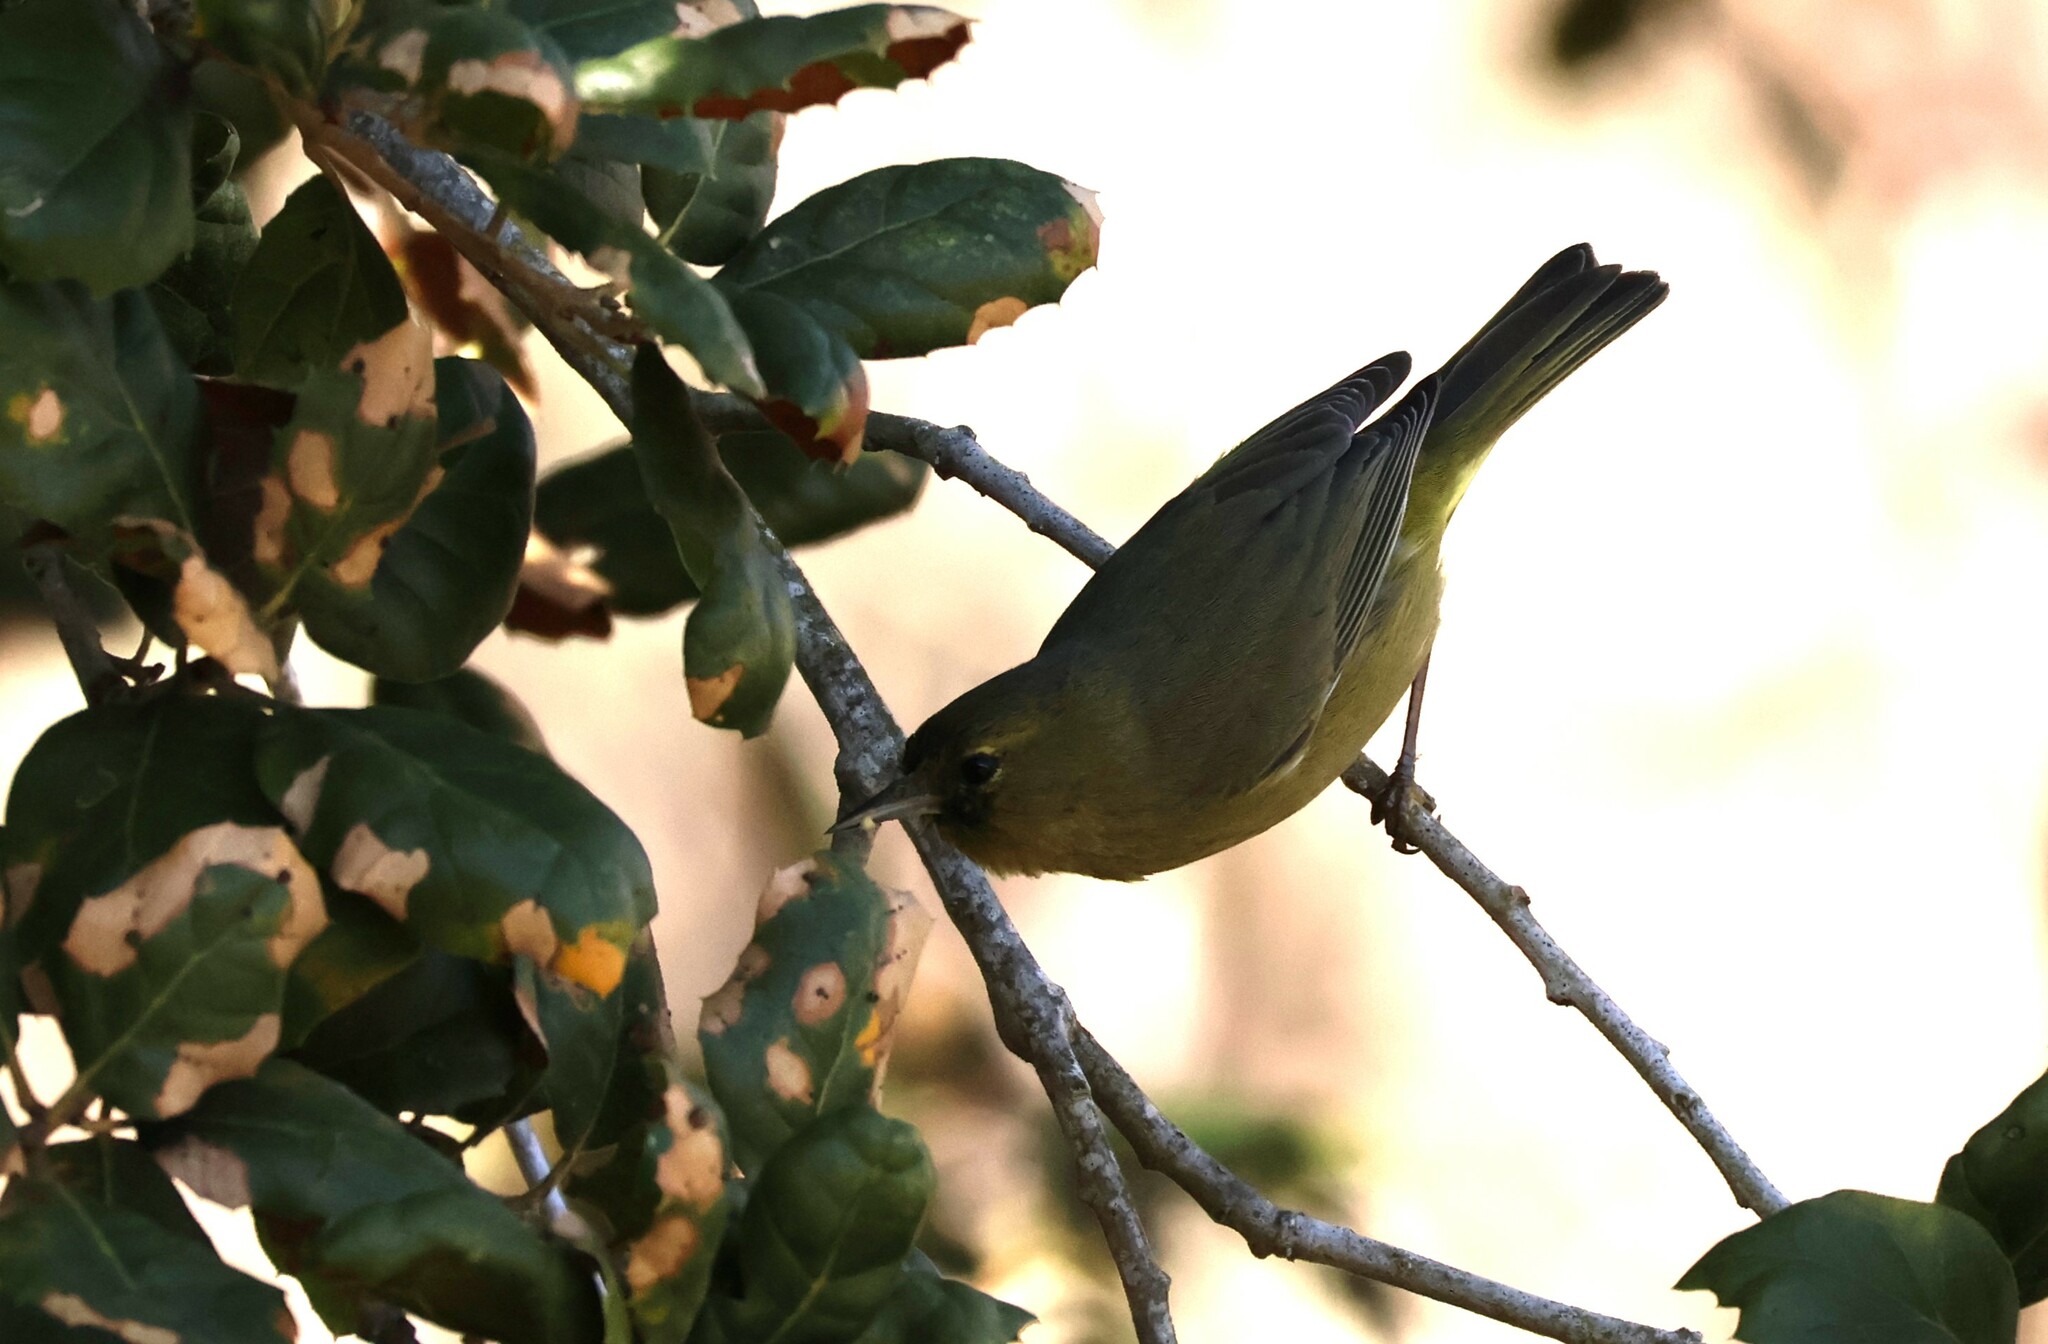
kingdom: Animalia
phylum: Chordata
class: Aves
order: Passeriformes
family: Parulidae
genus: Leiothlypis
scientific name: Leiothlypis celata
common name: Orange-crowned warbler
